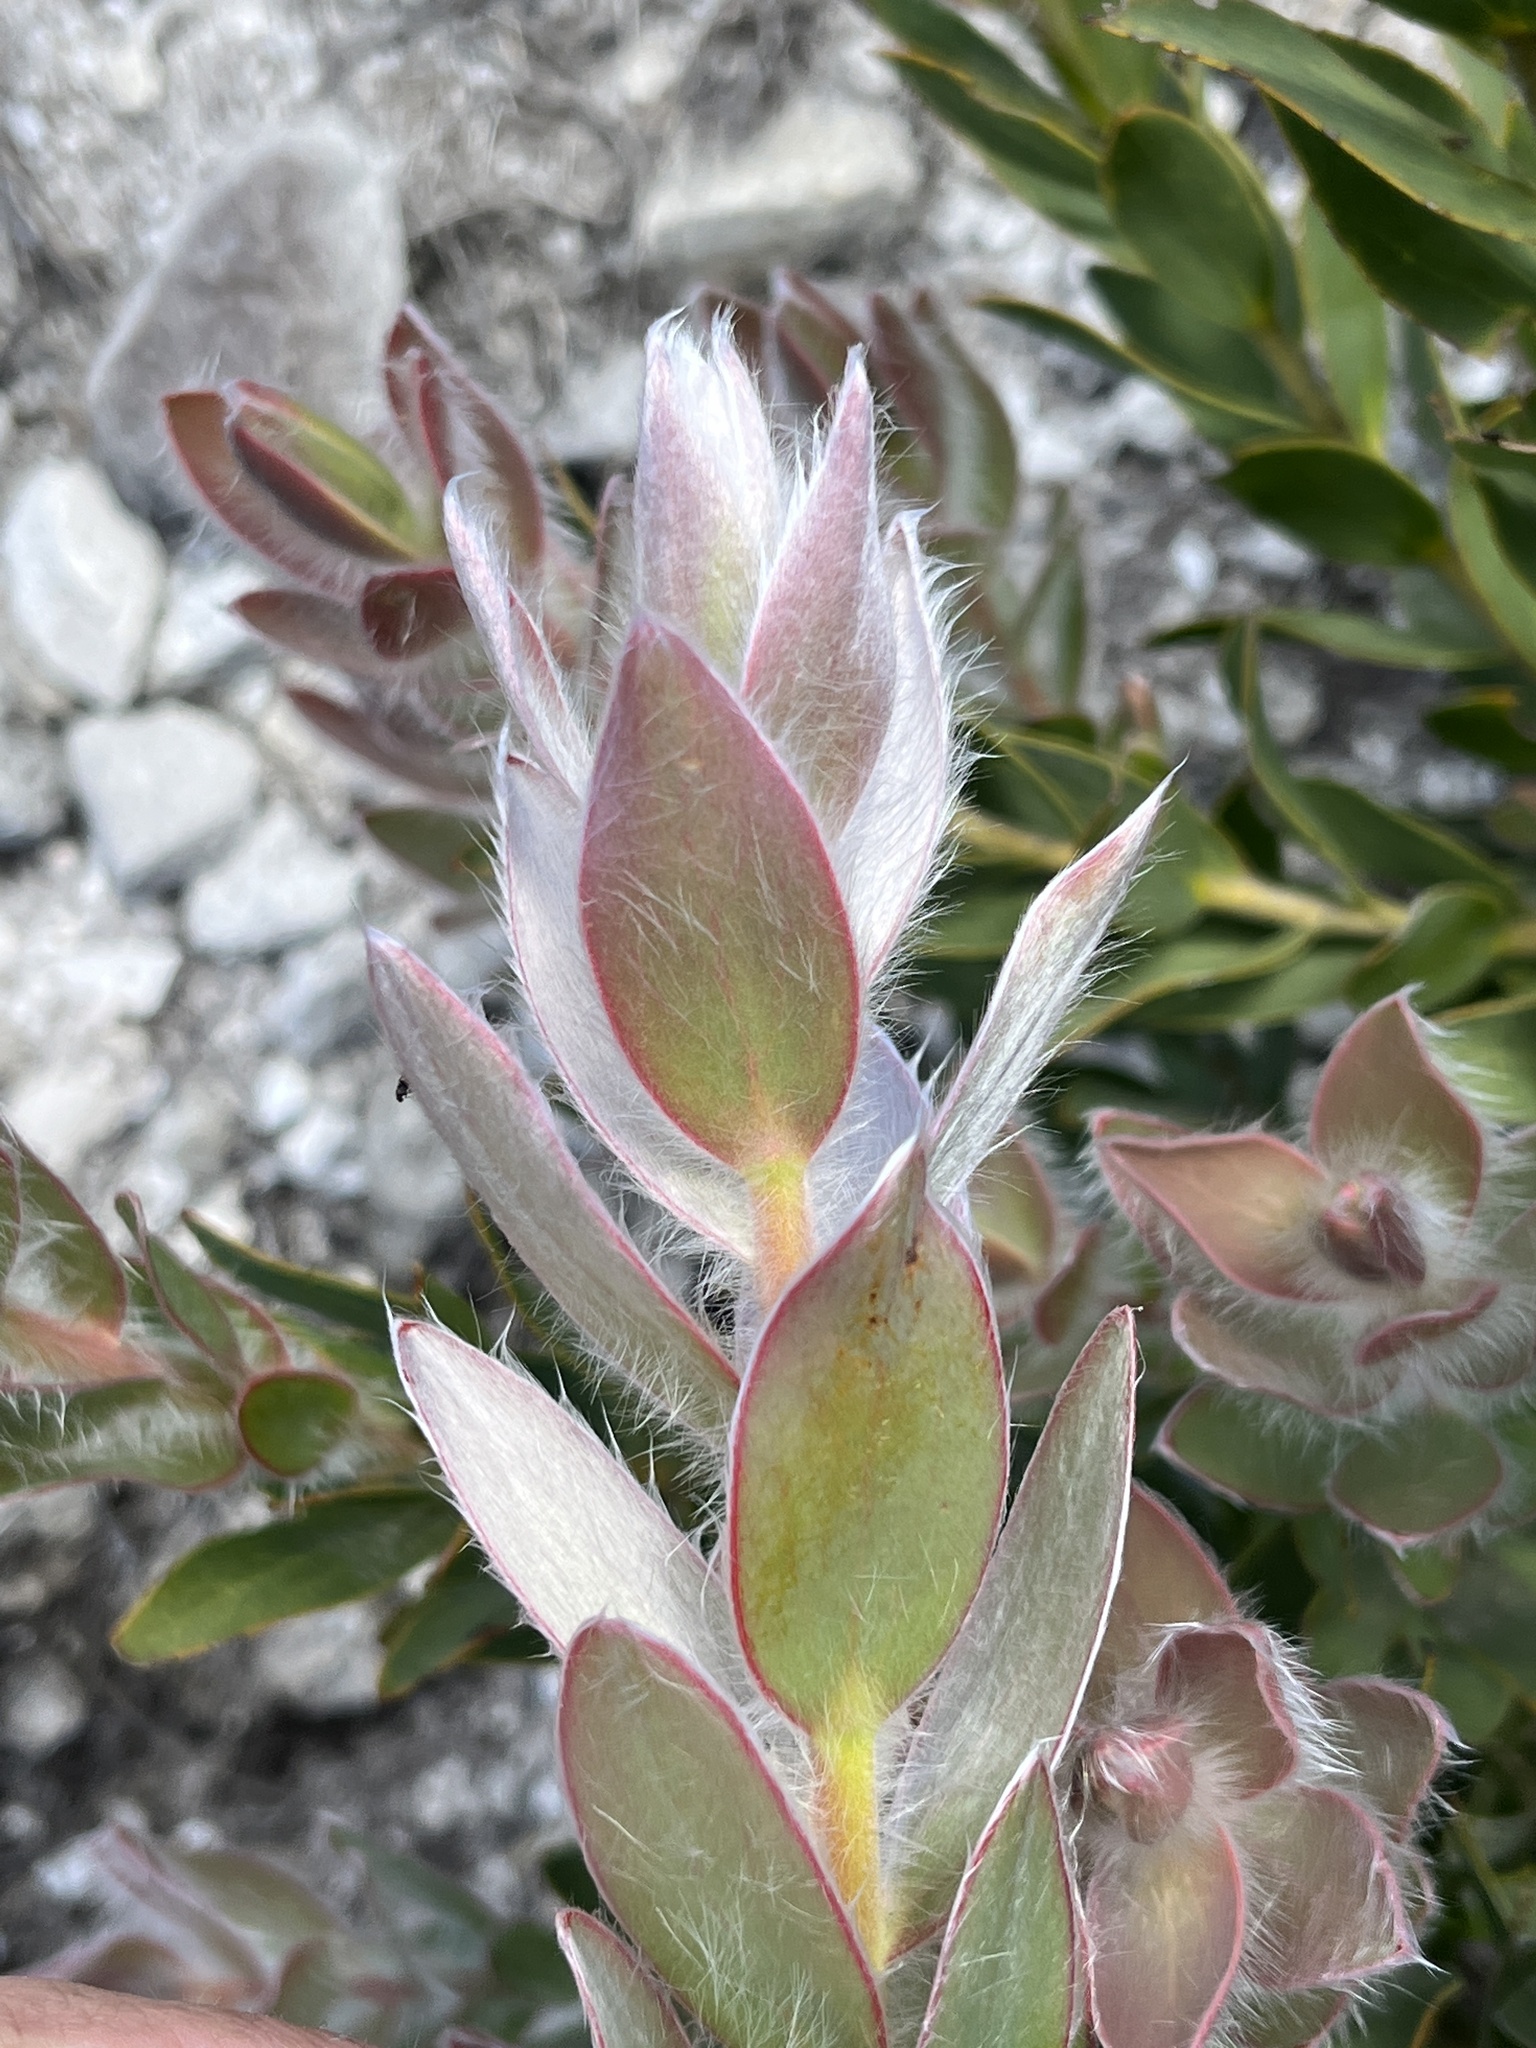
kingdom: Plantae
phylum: Tracheophyta
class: Magnoliopsida
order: Proteales
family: Proteaceae
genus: Leucadendron
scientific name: Leucadendron nervosum
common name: Silky-ruff conebush
